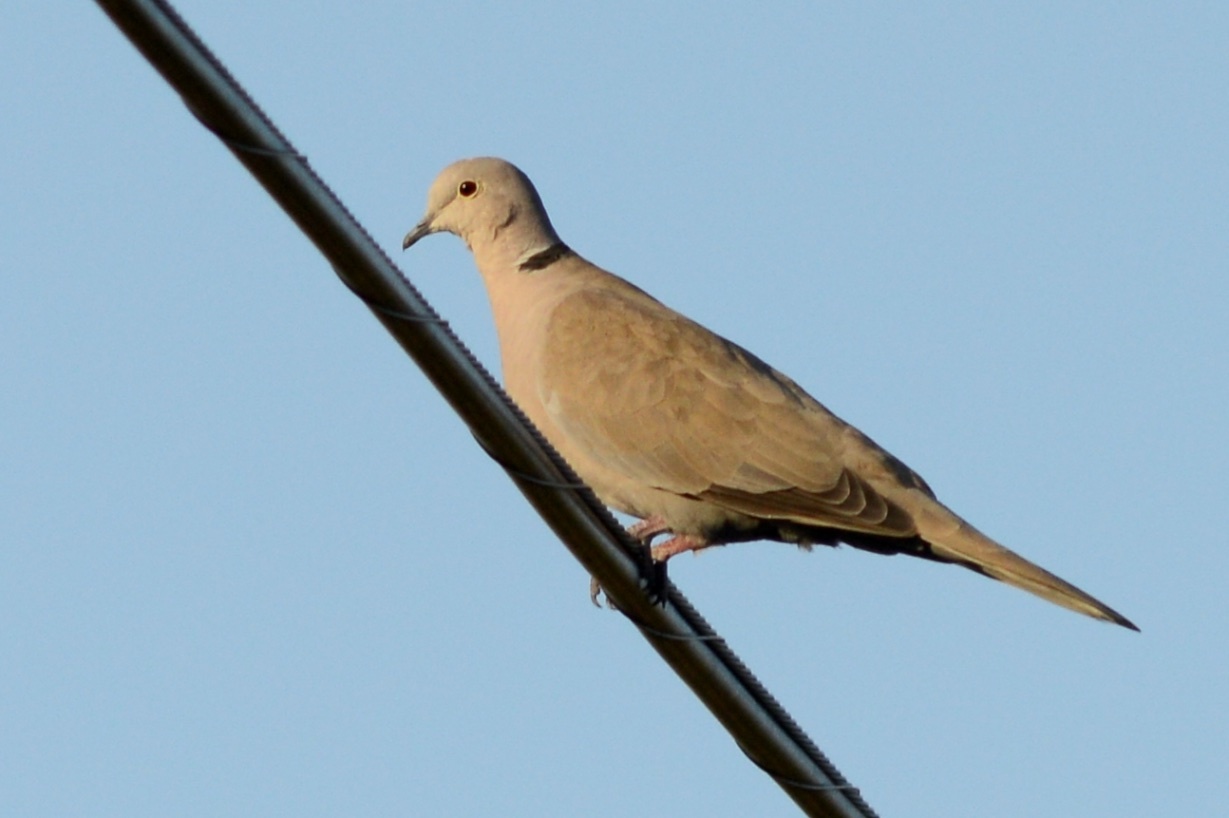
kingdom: Animalia
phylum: Chordata
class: Aves
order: Columbiformes
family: Columbidae
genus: Streptopelia
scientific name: Streptopelia decaocto
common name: Eurasian collared dove
